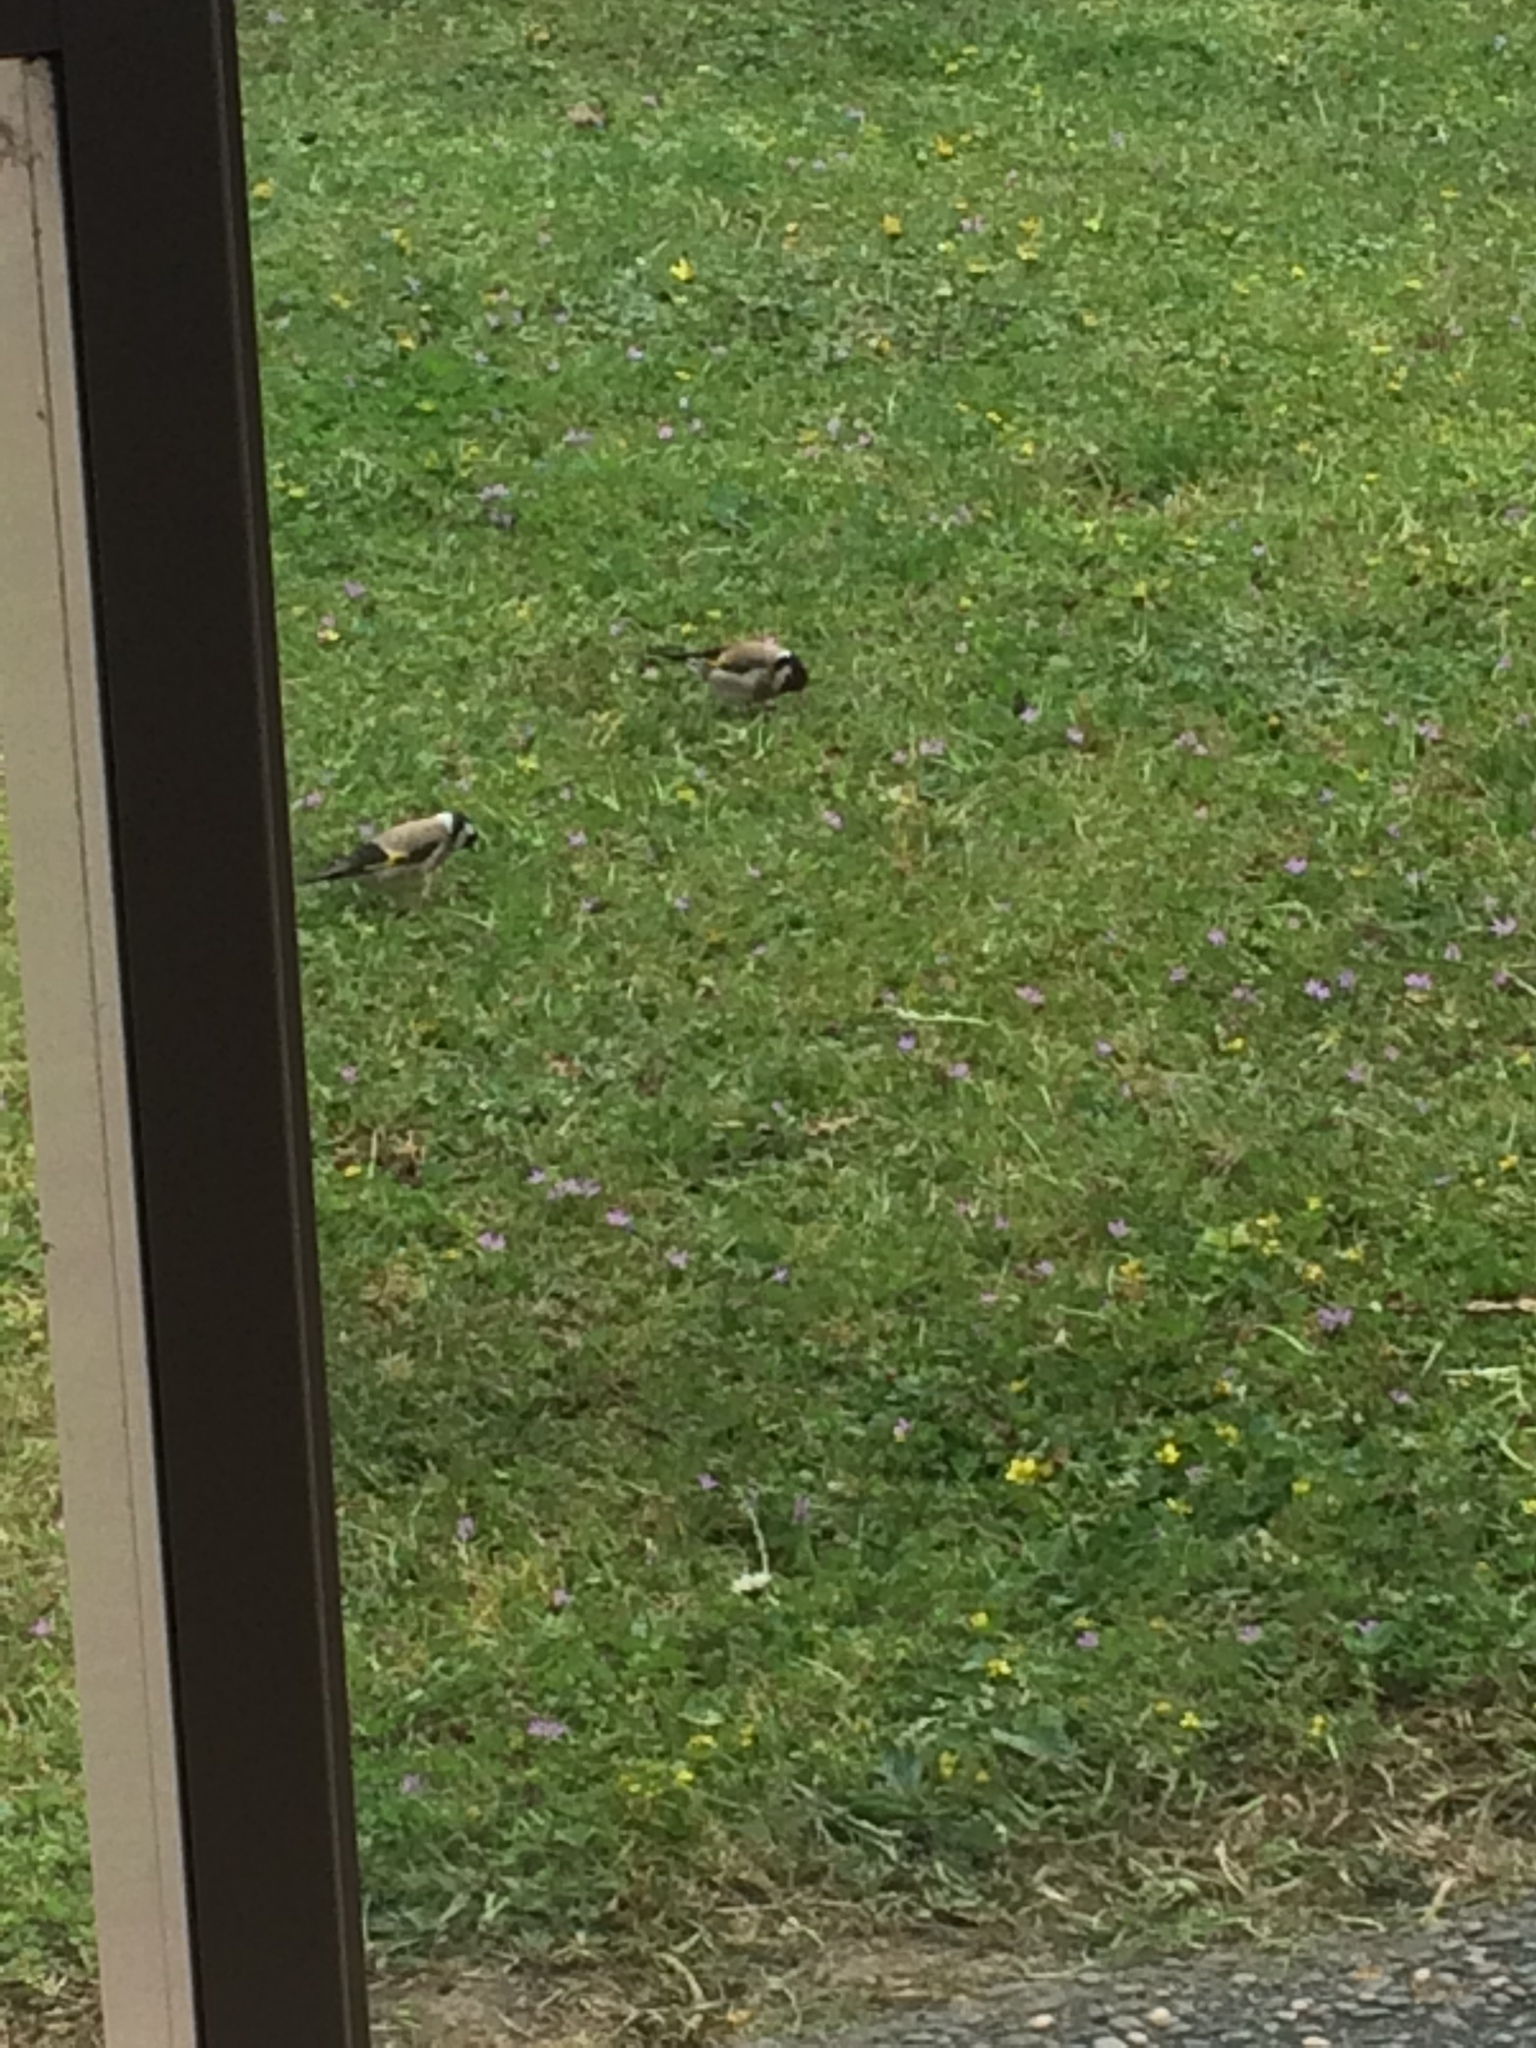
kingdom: Animalia
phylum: Chordata
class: Aves
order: Passeriformes
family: Fringillidae
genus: Carduelis
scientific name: Carduelis carduelis
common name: European goldfinch
